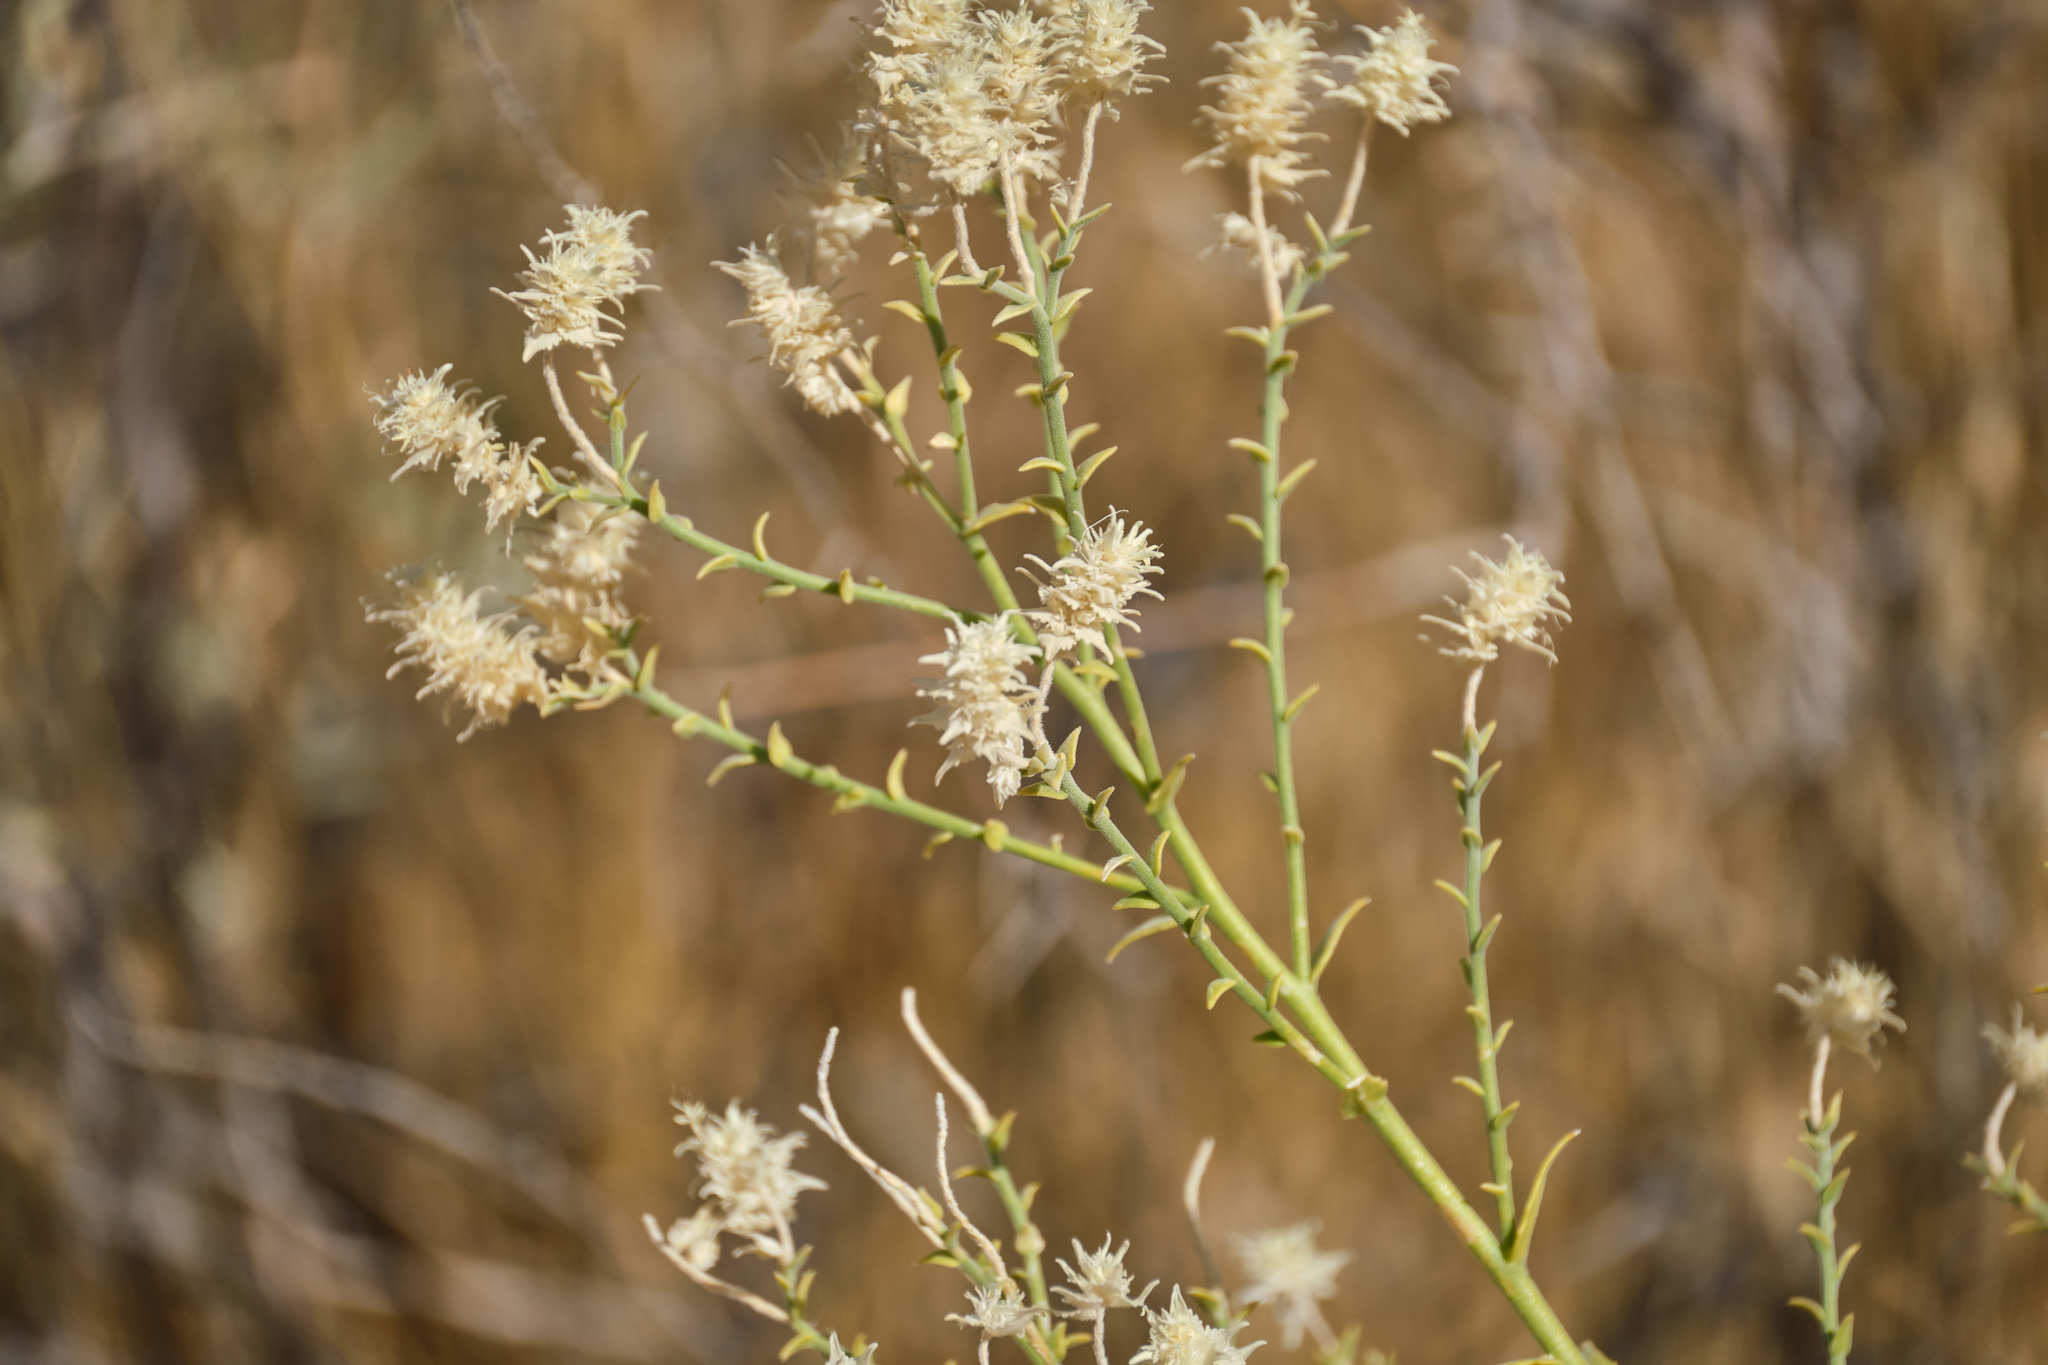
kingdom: Plantae
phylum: Tracheophyta
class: Magnoliopsida
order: Cornales
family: Loasaceae
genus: Petalonyx
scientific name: Petalonyx thurberi
